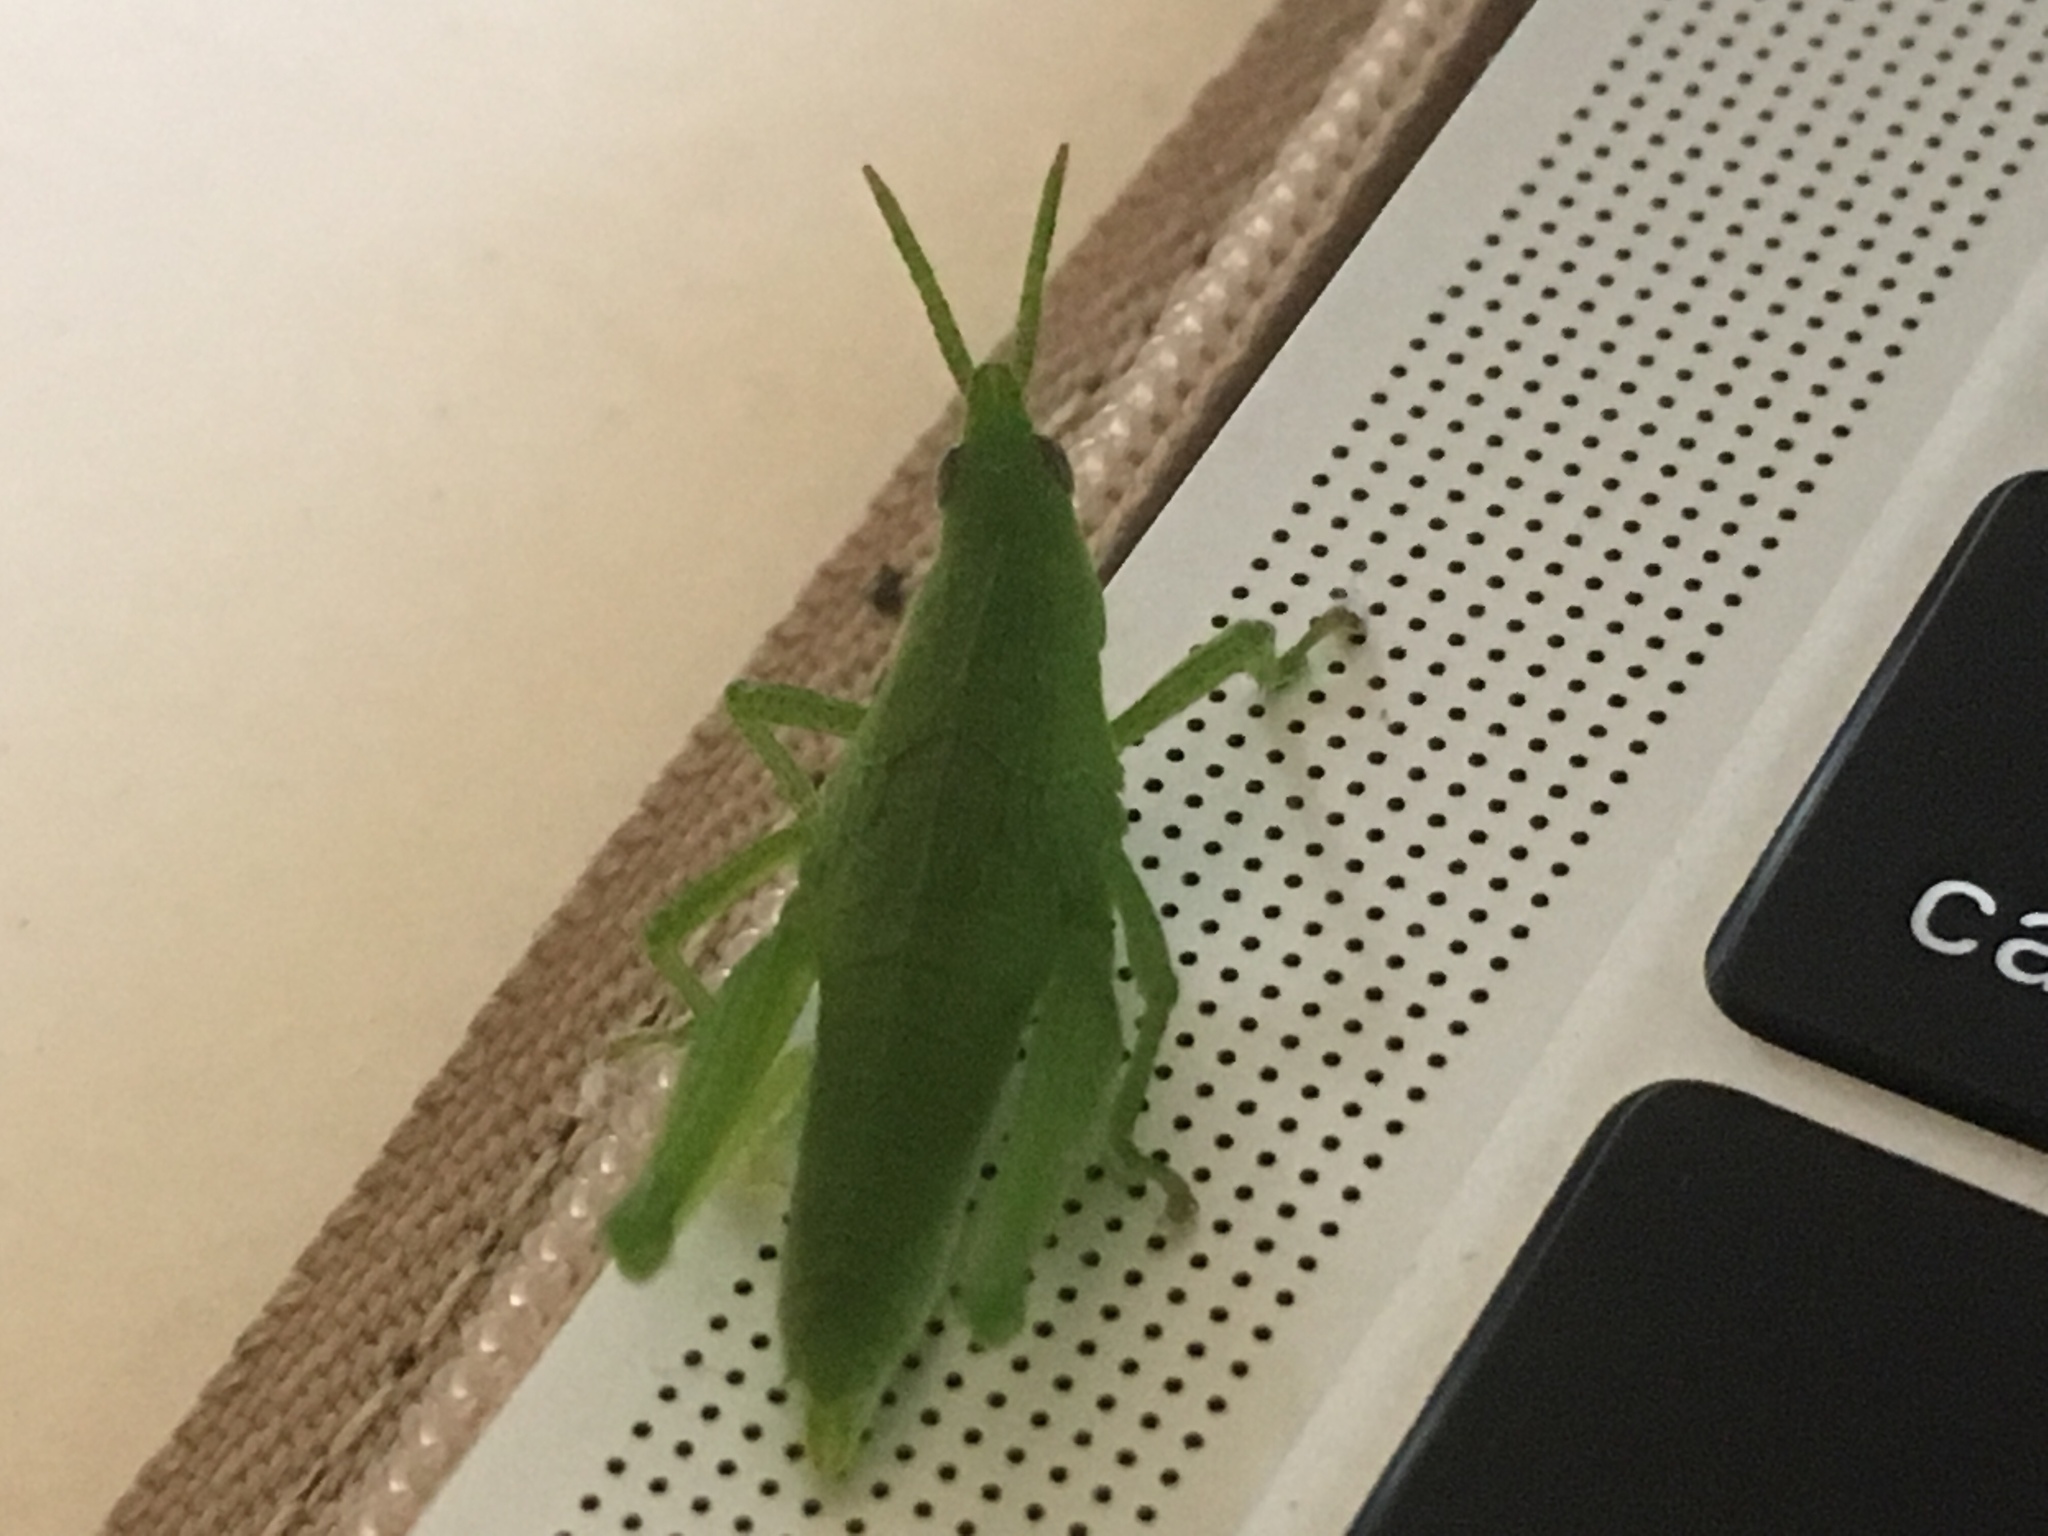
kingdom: Animalia
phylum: Arthropoda
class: Insecta
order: Orthoptera
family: Pyrgomorphidae
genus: Prosphena
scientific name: Prosphena scudderi
